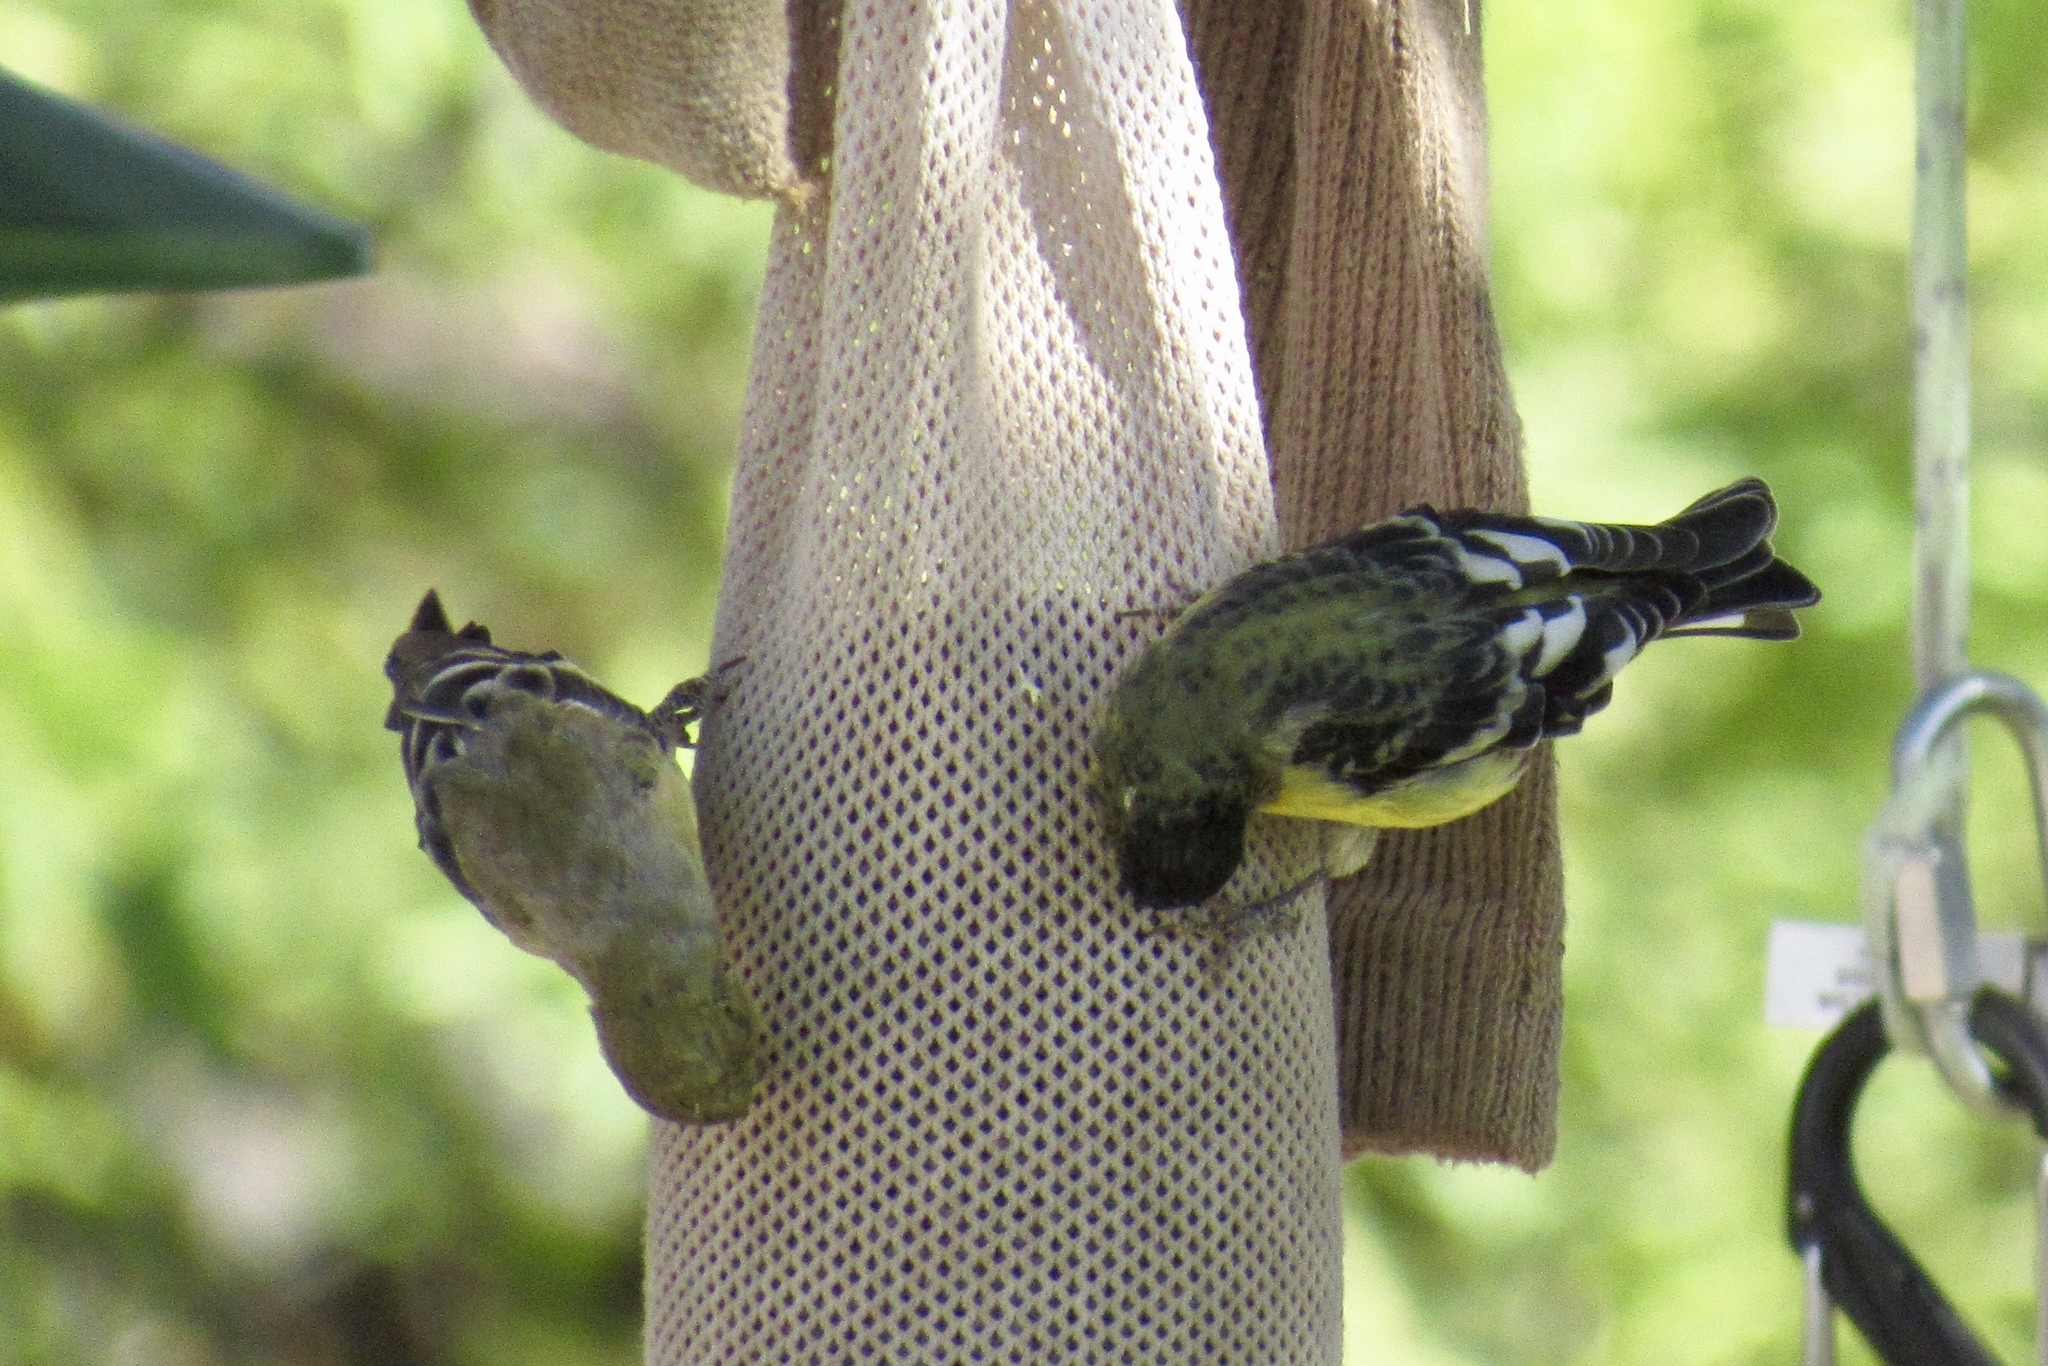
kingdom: Animalia
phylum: Chordata
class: Aves
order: Passeriformes
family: Fringillidae
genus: Spinus
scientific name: Spinus psaltria
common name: Lesser goldfinch
